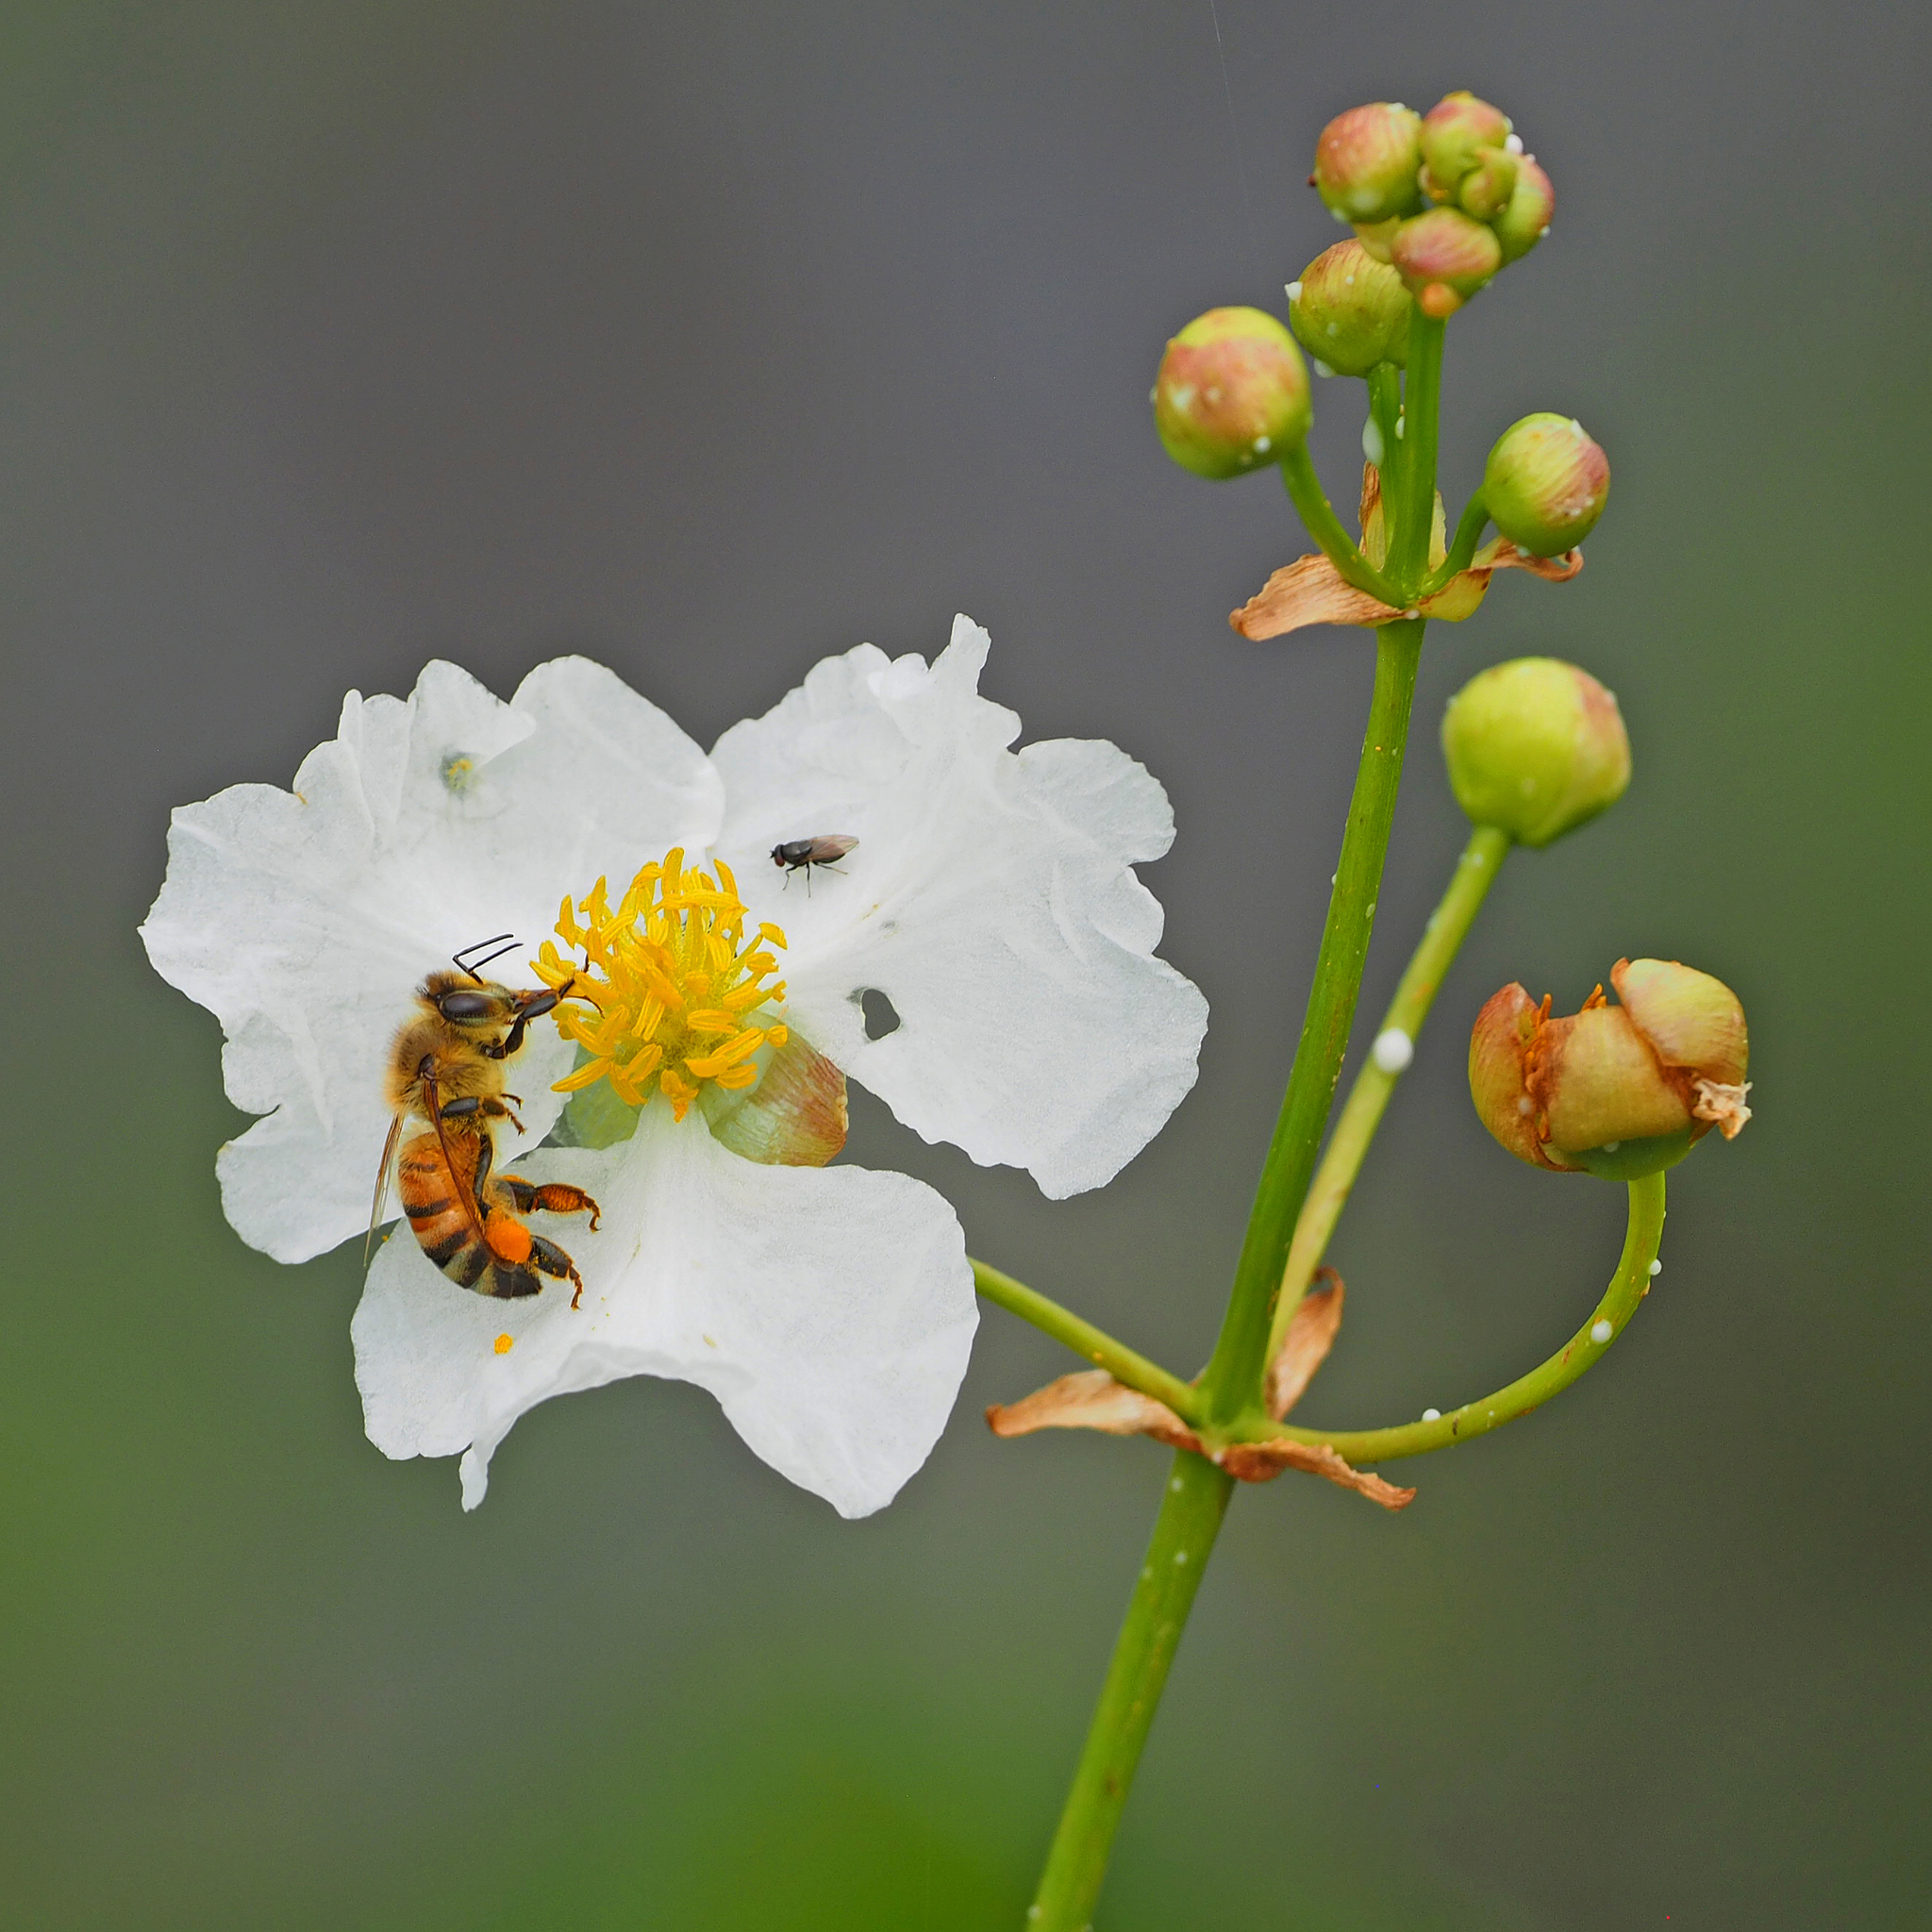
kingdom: Plantae
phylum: Tracheophyta
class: Liliopsida
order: Alismatales
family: Alismataceae
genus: Sagittaria
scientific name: Sagittaria lancifolia
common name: Lance-leaf arrowhead
